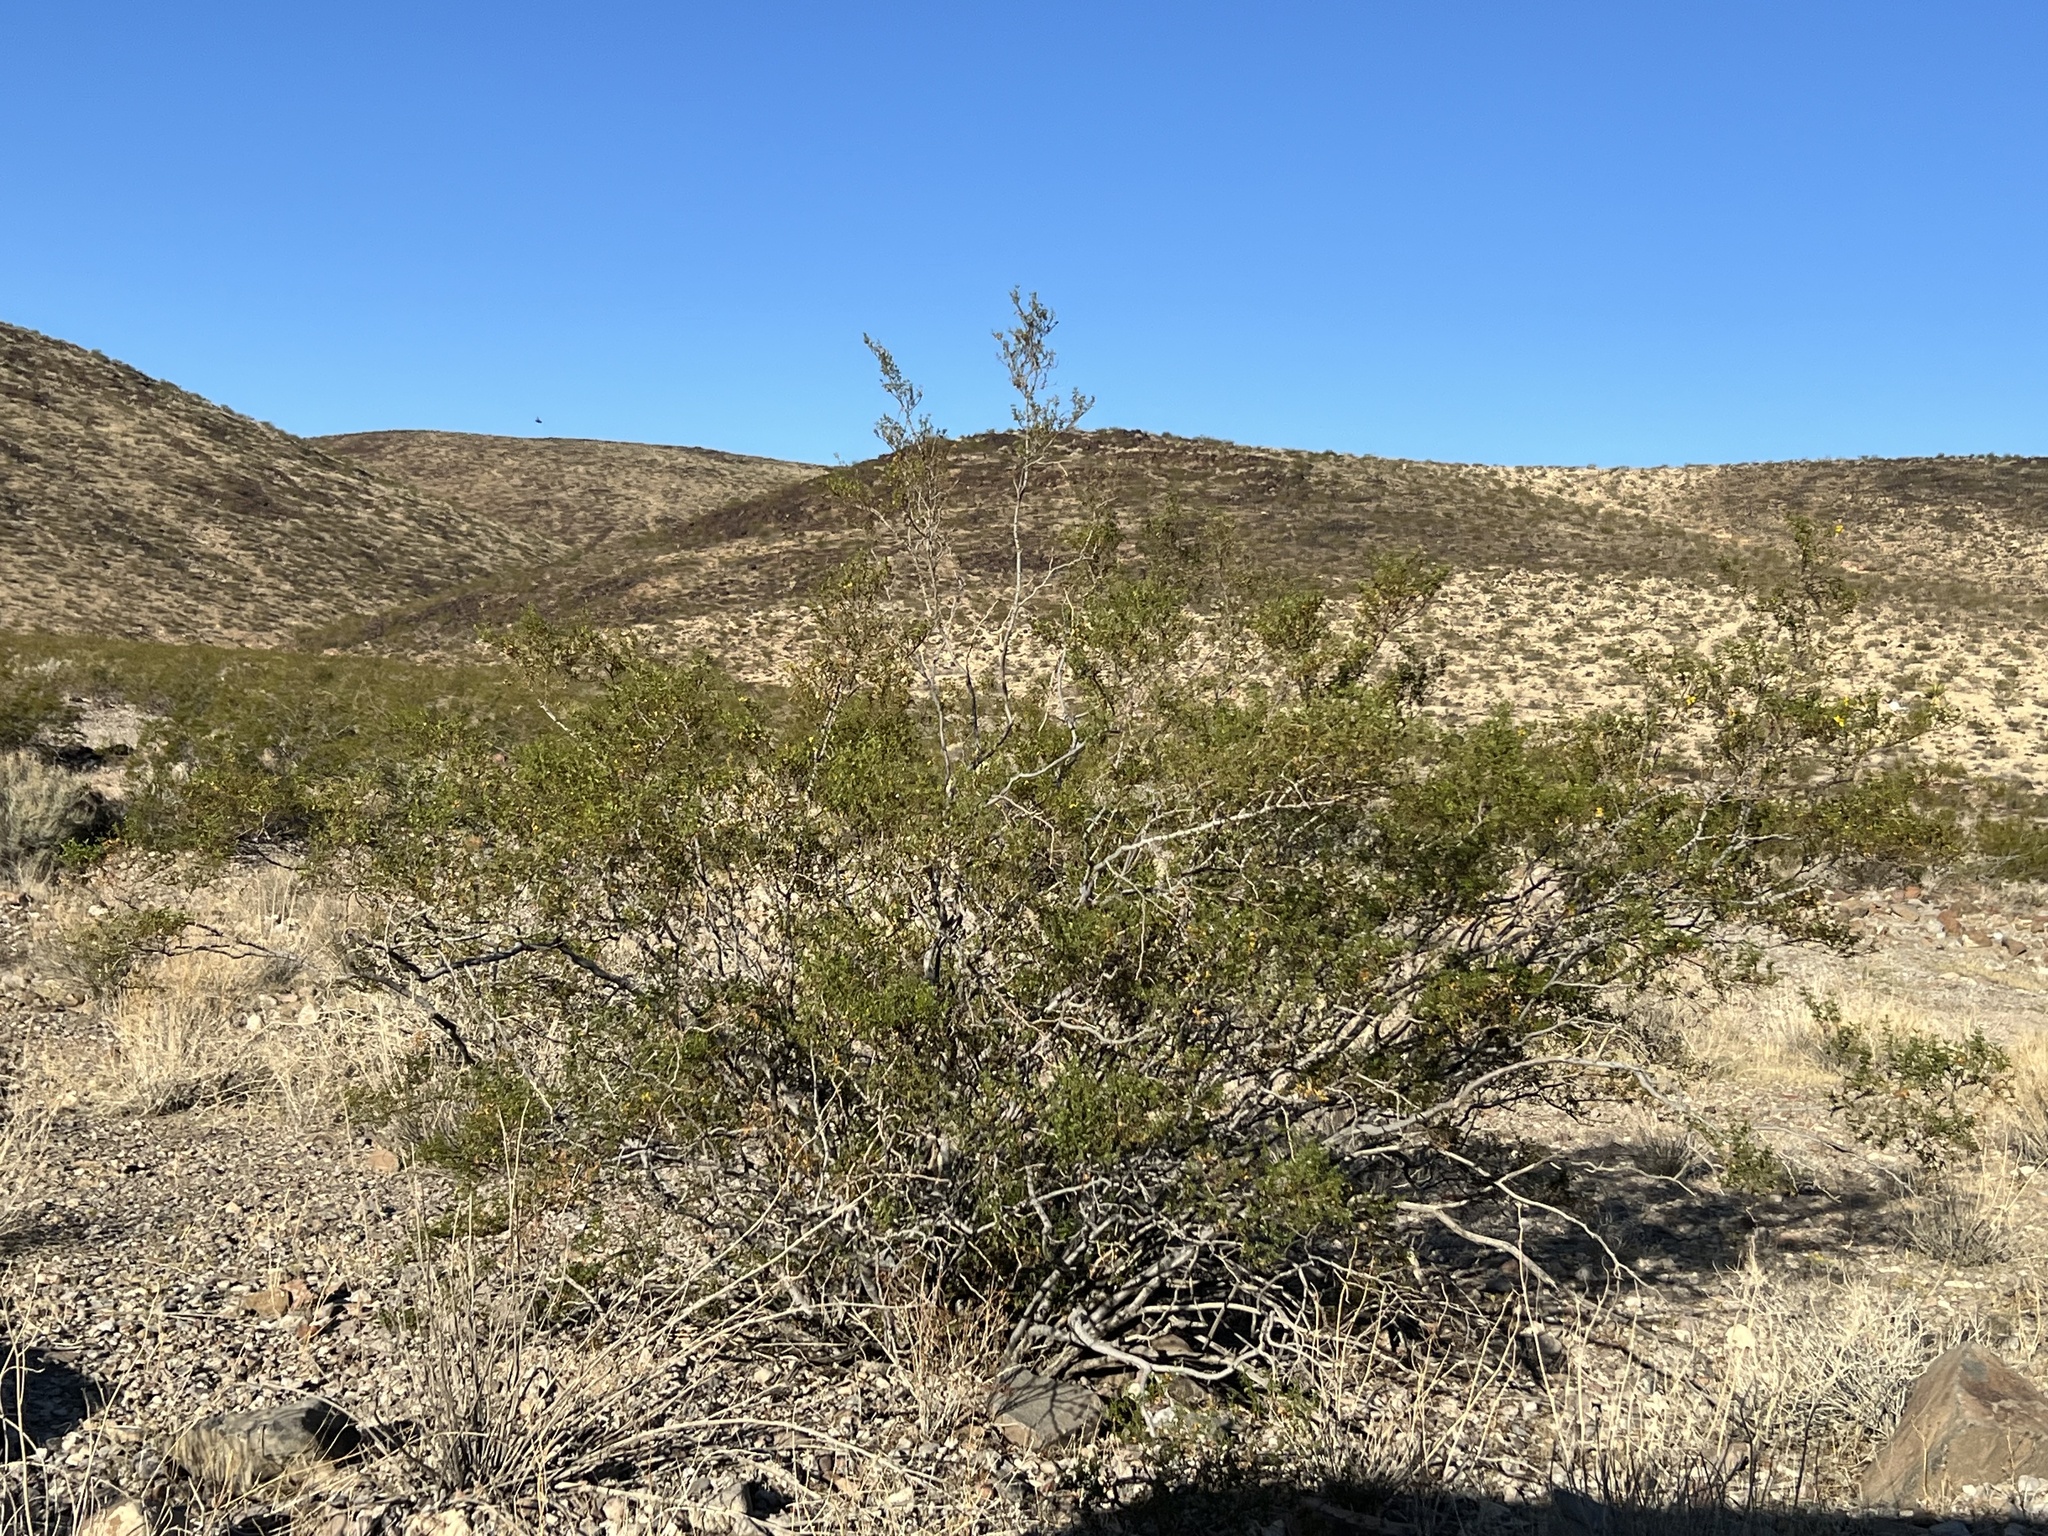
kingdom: Plantae
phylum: Tracheophyta
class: Magnoliopsida
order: Zygophyllales
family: Zygophyllaceae
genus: Larrea
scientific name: Larrea tridentata
